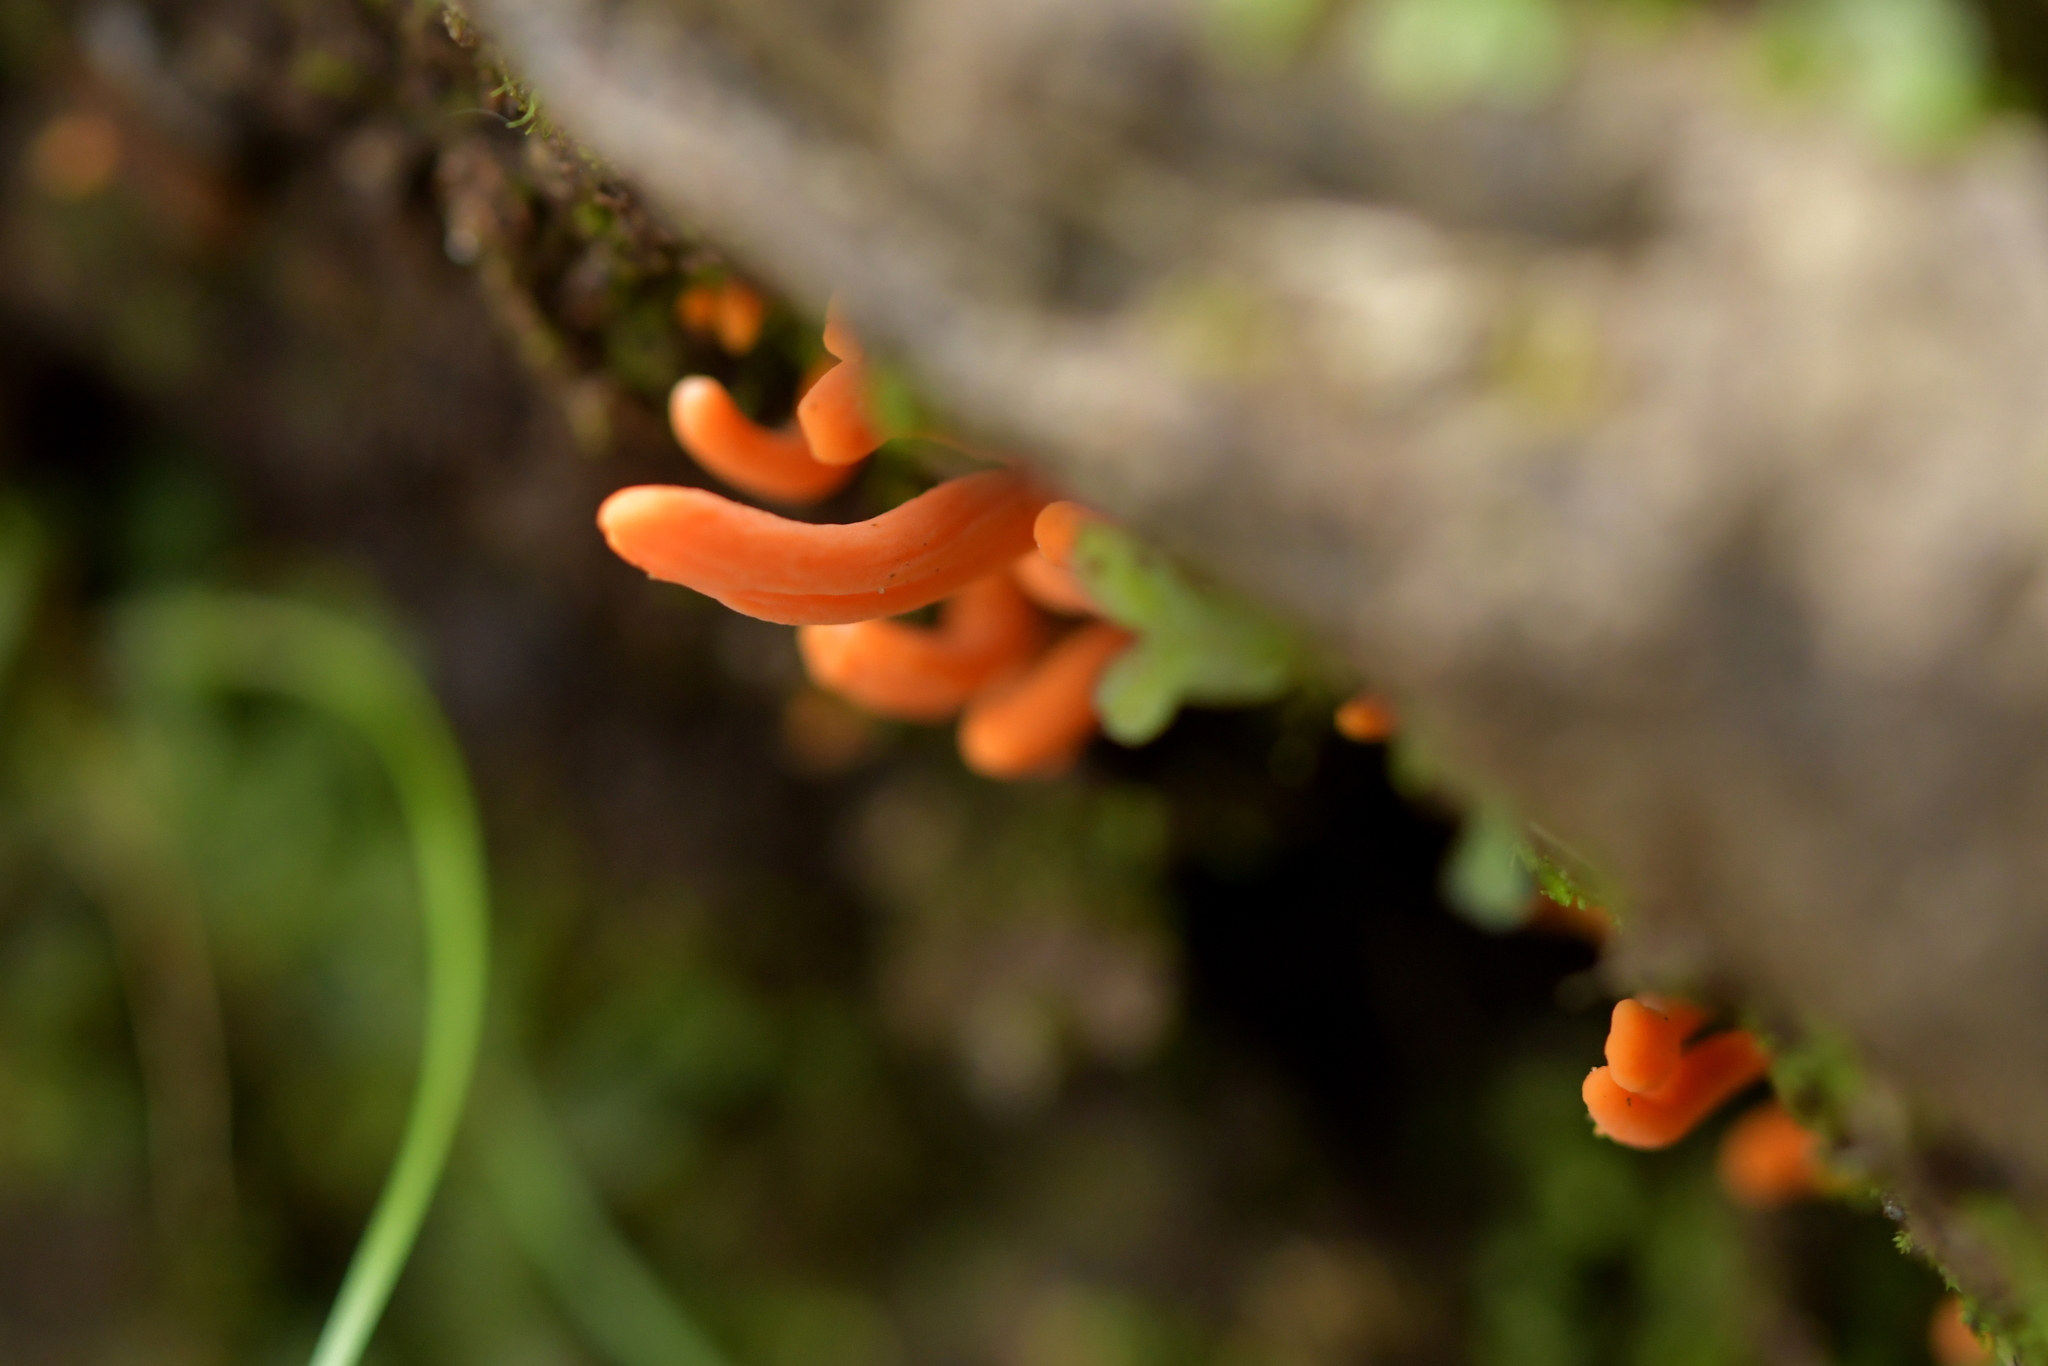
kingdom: Fungi
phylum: Basidiomycota
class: Agaricomycetes
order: Agaricales
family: Clavariaceae
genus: Clavulinopsis
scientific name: Clavulinopsis sulcata
